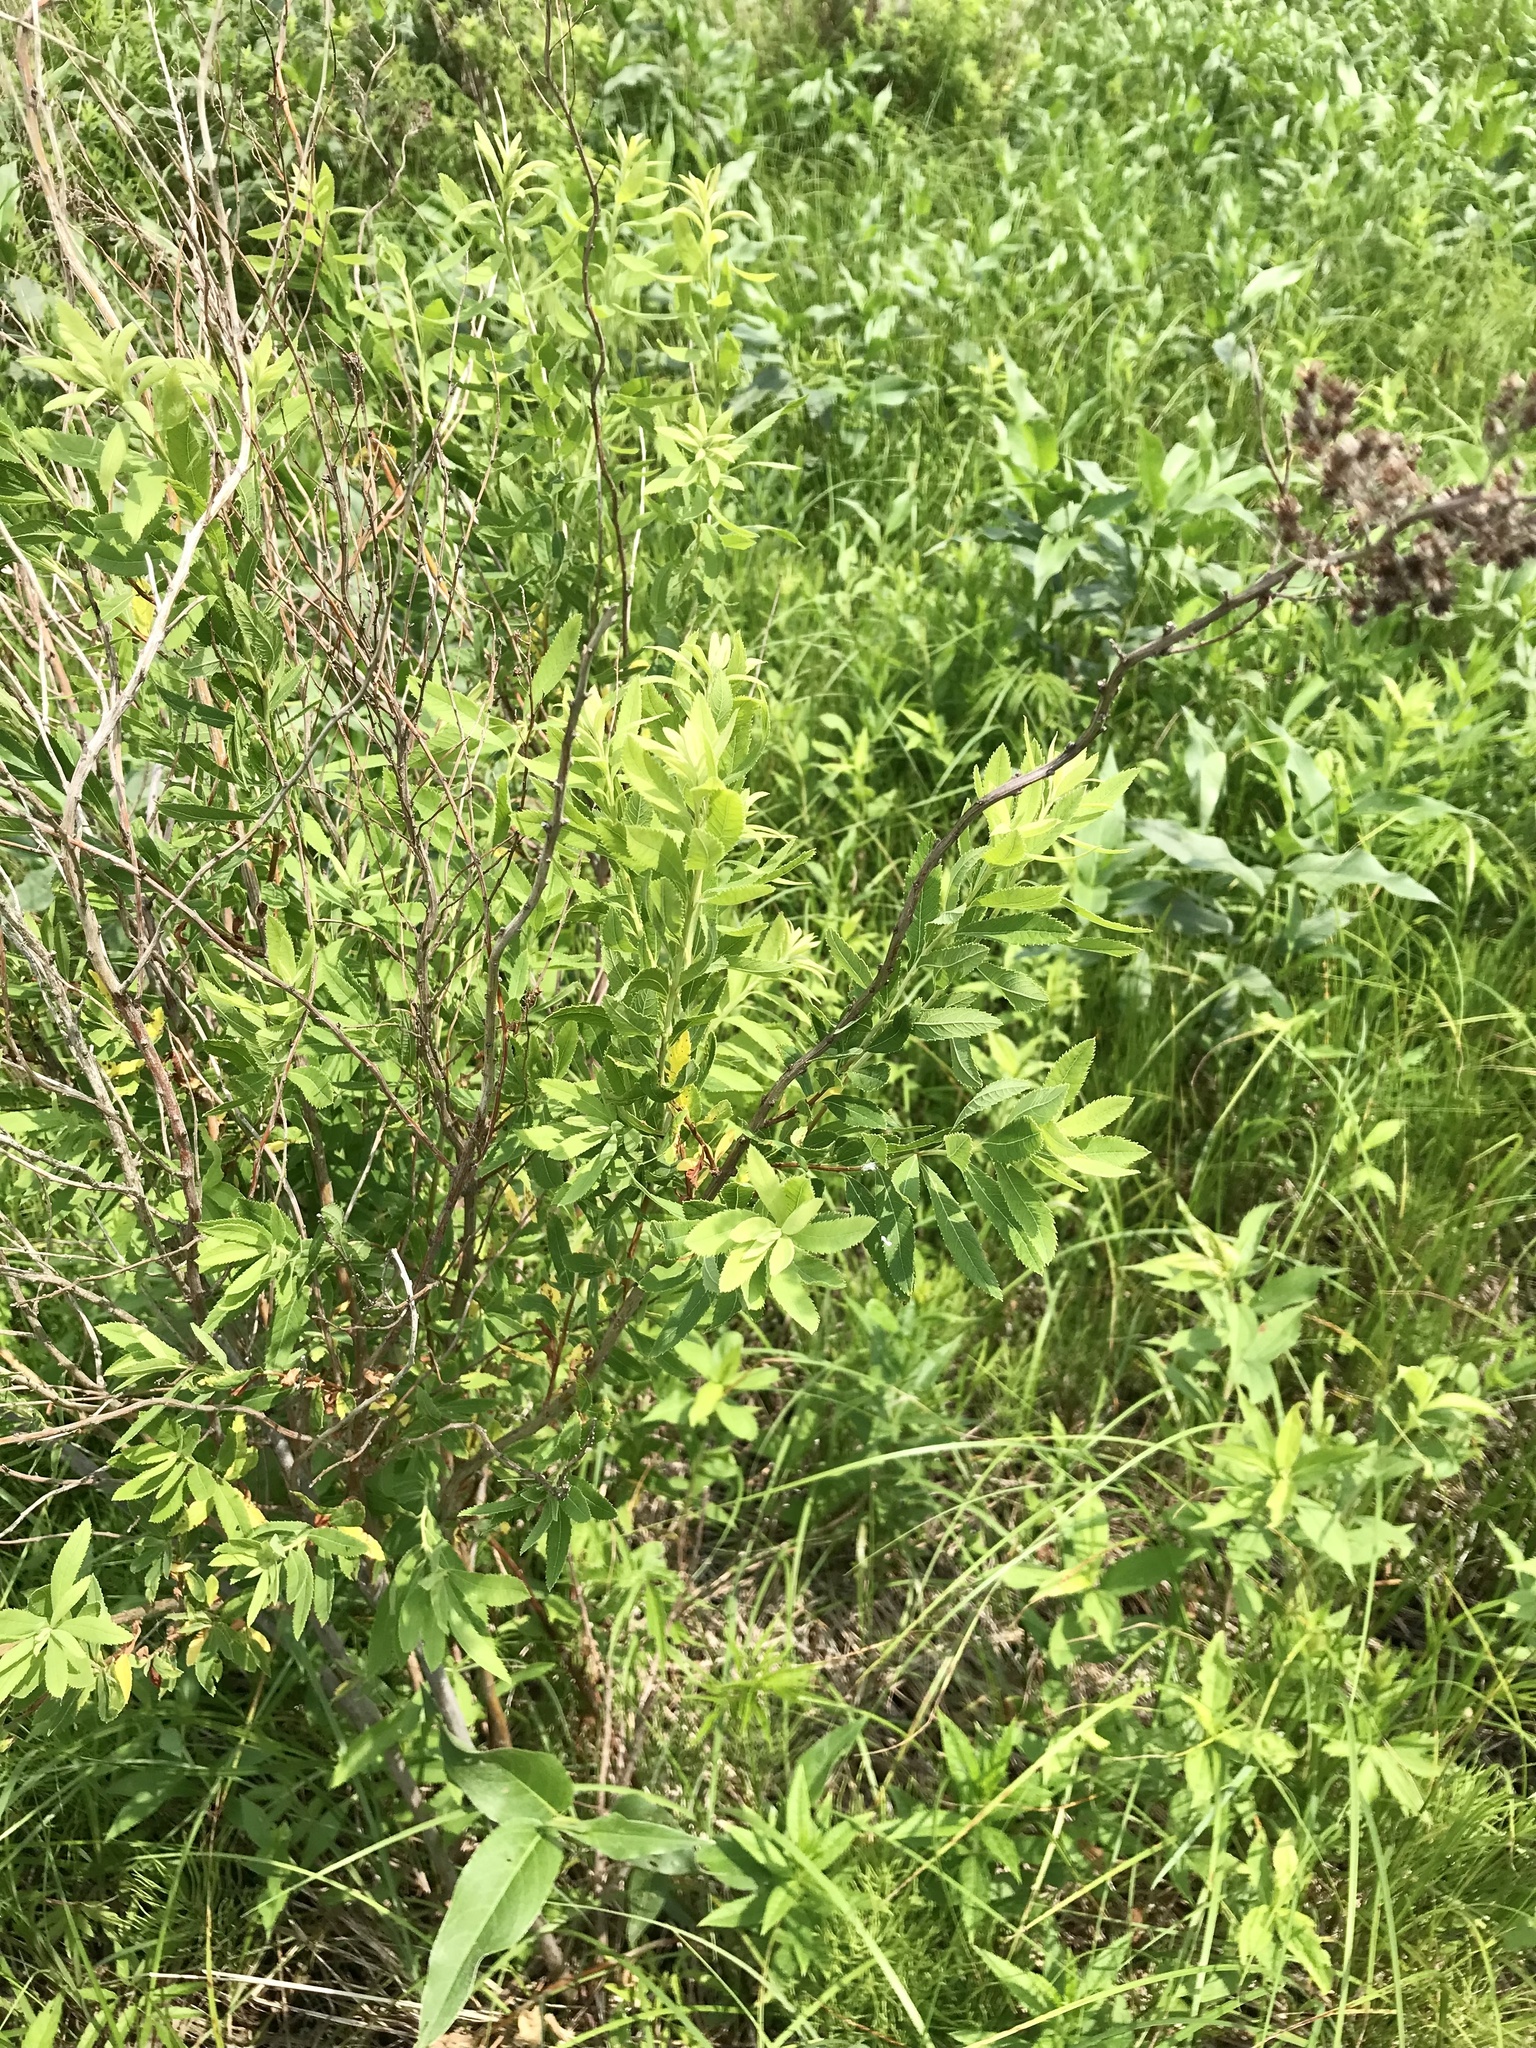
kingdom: Plantae
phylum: Tracheophyta
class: Magnoliopsida
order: Rosales
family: Rosaceae
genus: Spiraea
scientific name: Spiraea alba
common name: Pale bridewort
